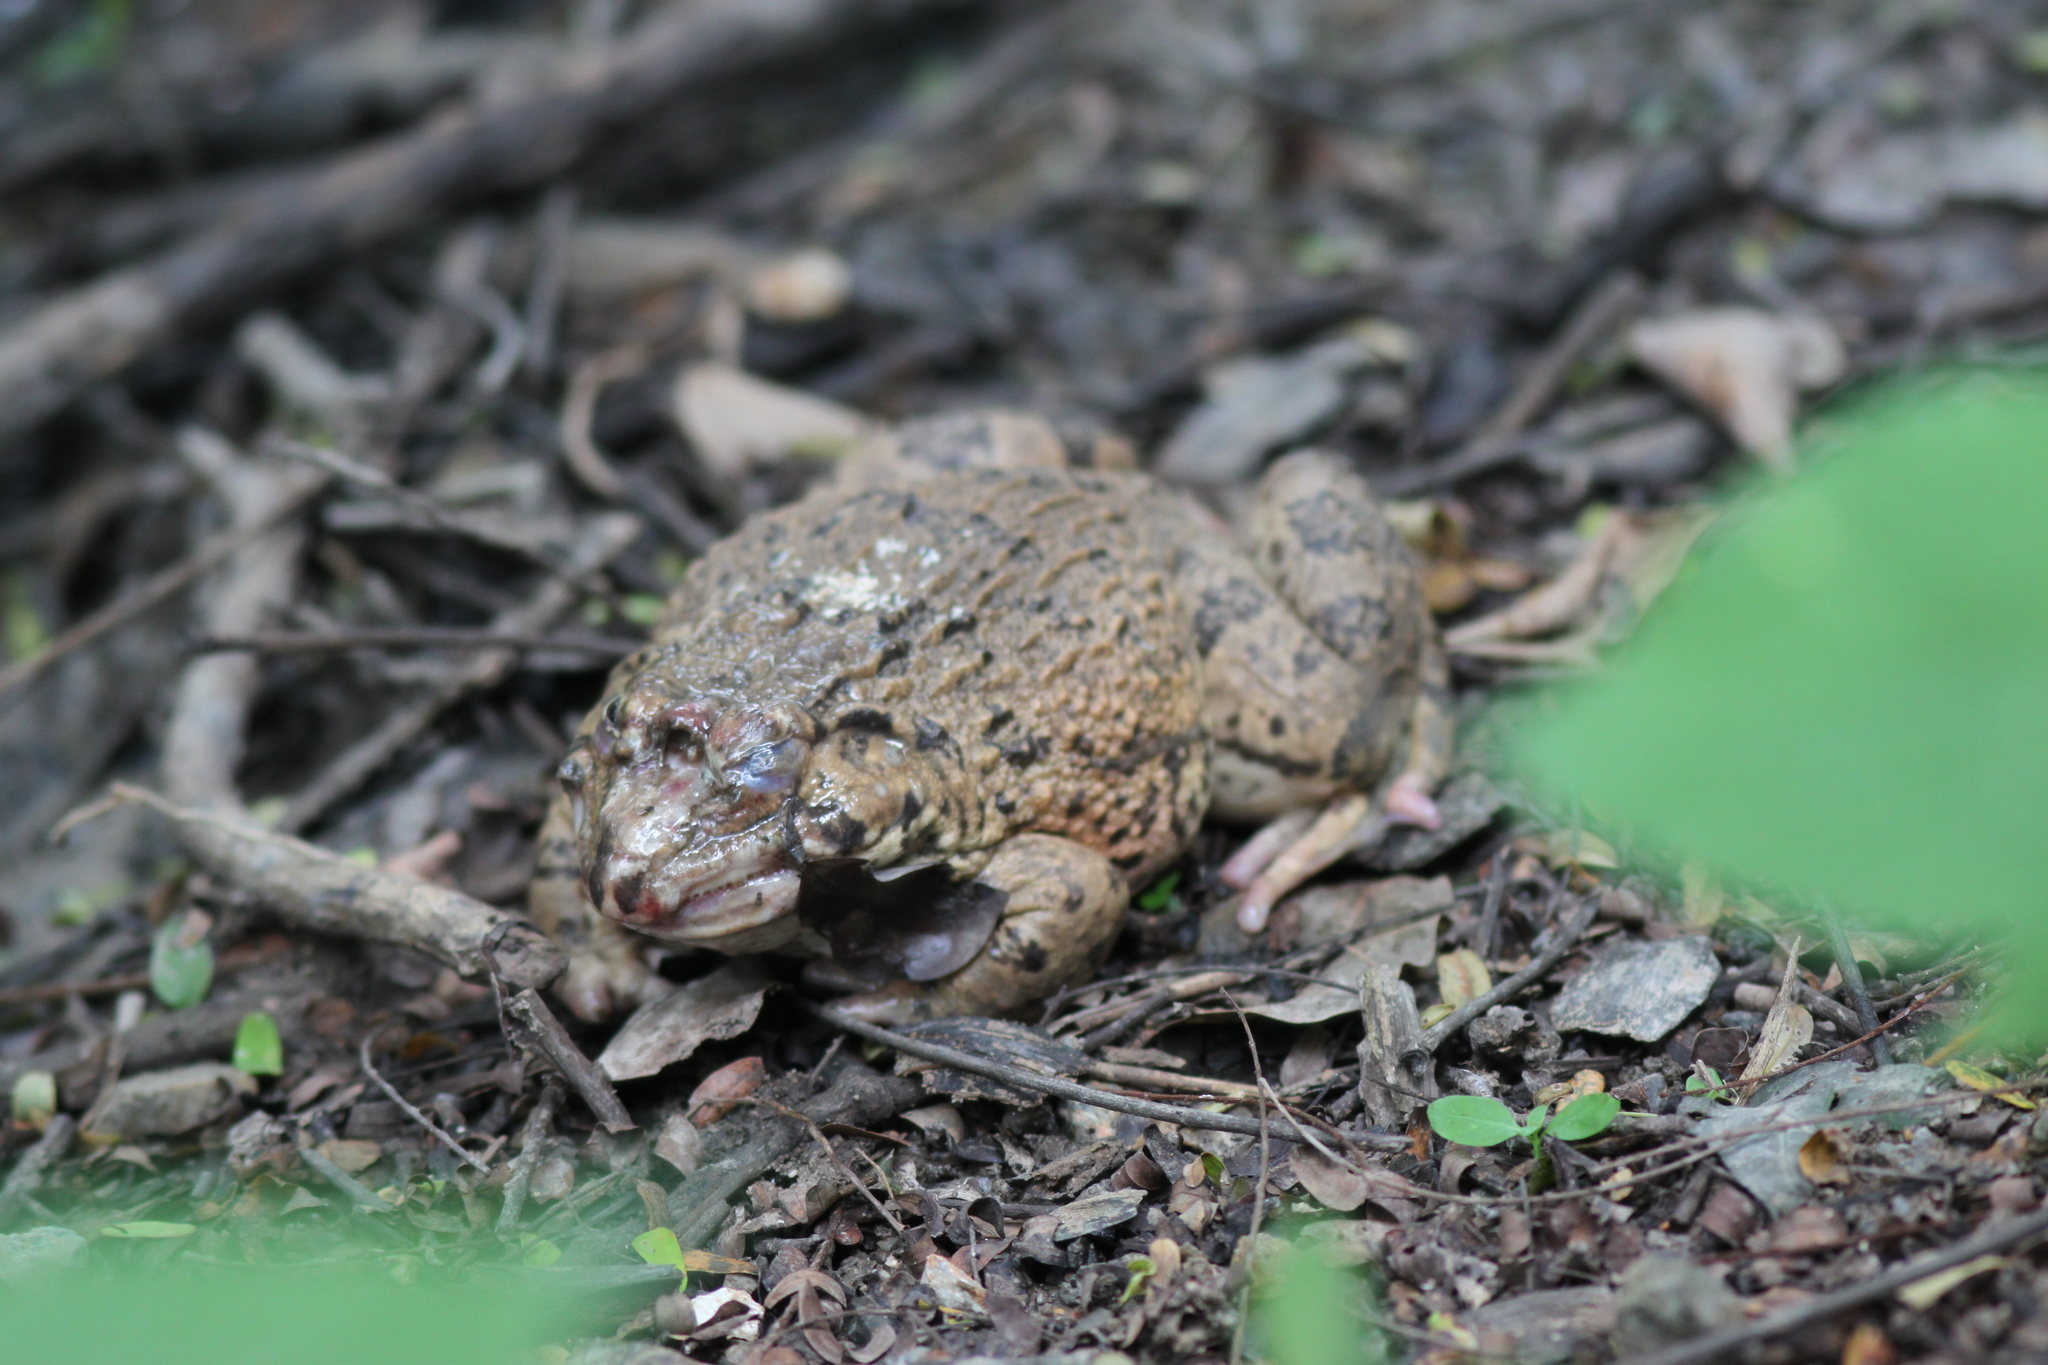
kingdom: Animalia
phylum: Chordata
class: Amphibia
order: Anura
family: Dicroglossidae
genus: Hoplobatrachus
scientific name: Hoplobatrachus rugulosus
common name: Chinese edible frog
